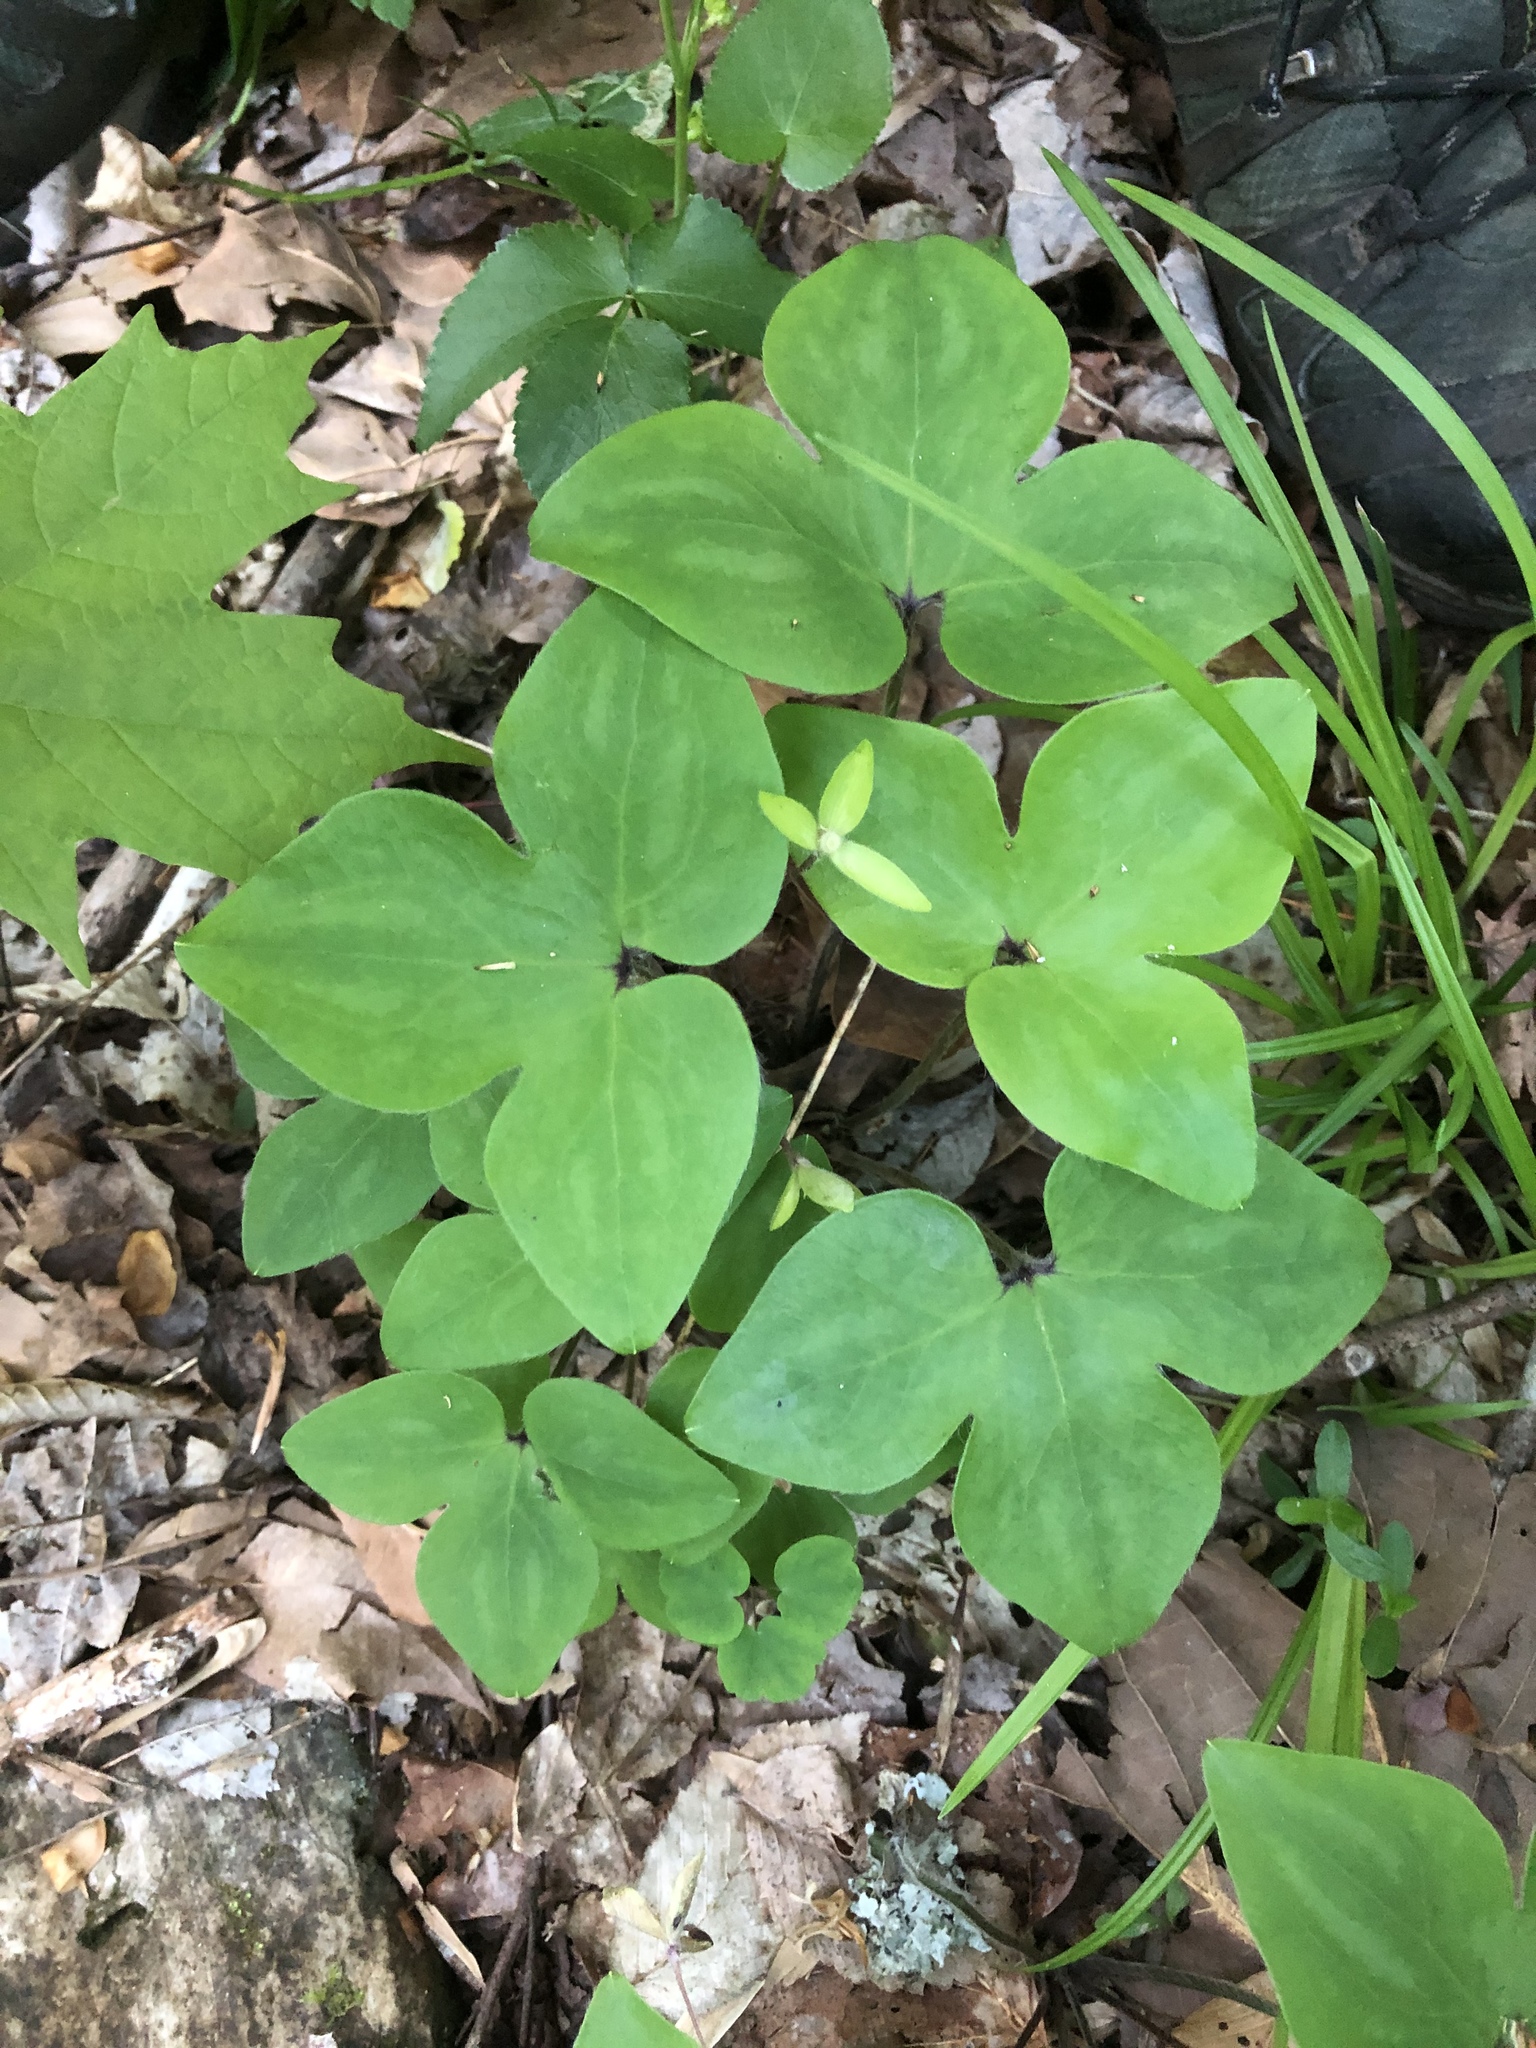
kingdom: Plantae
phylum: Tracheophyta
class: Magnoliopsida
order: Ranunculales
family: Ranunculaceae
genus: Hepatica
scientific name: Hepatica acutiloba
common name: Sharp-lobed hepatica
